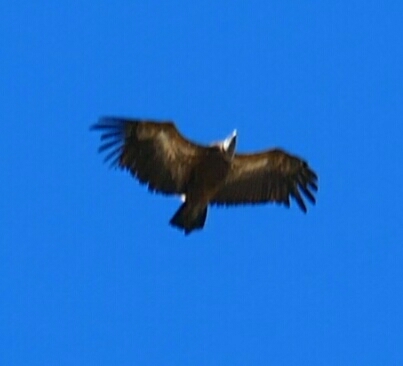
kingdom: Animalia
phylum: Chordata
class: Aves
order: Accipitriformes
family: Accipitridae
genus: Gyps
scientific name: Gyps fulvus
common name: Griffon vulture
